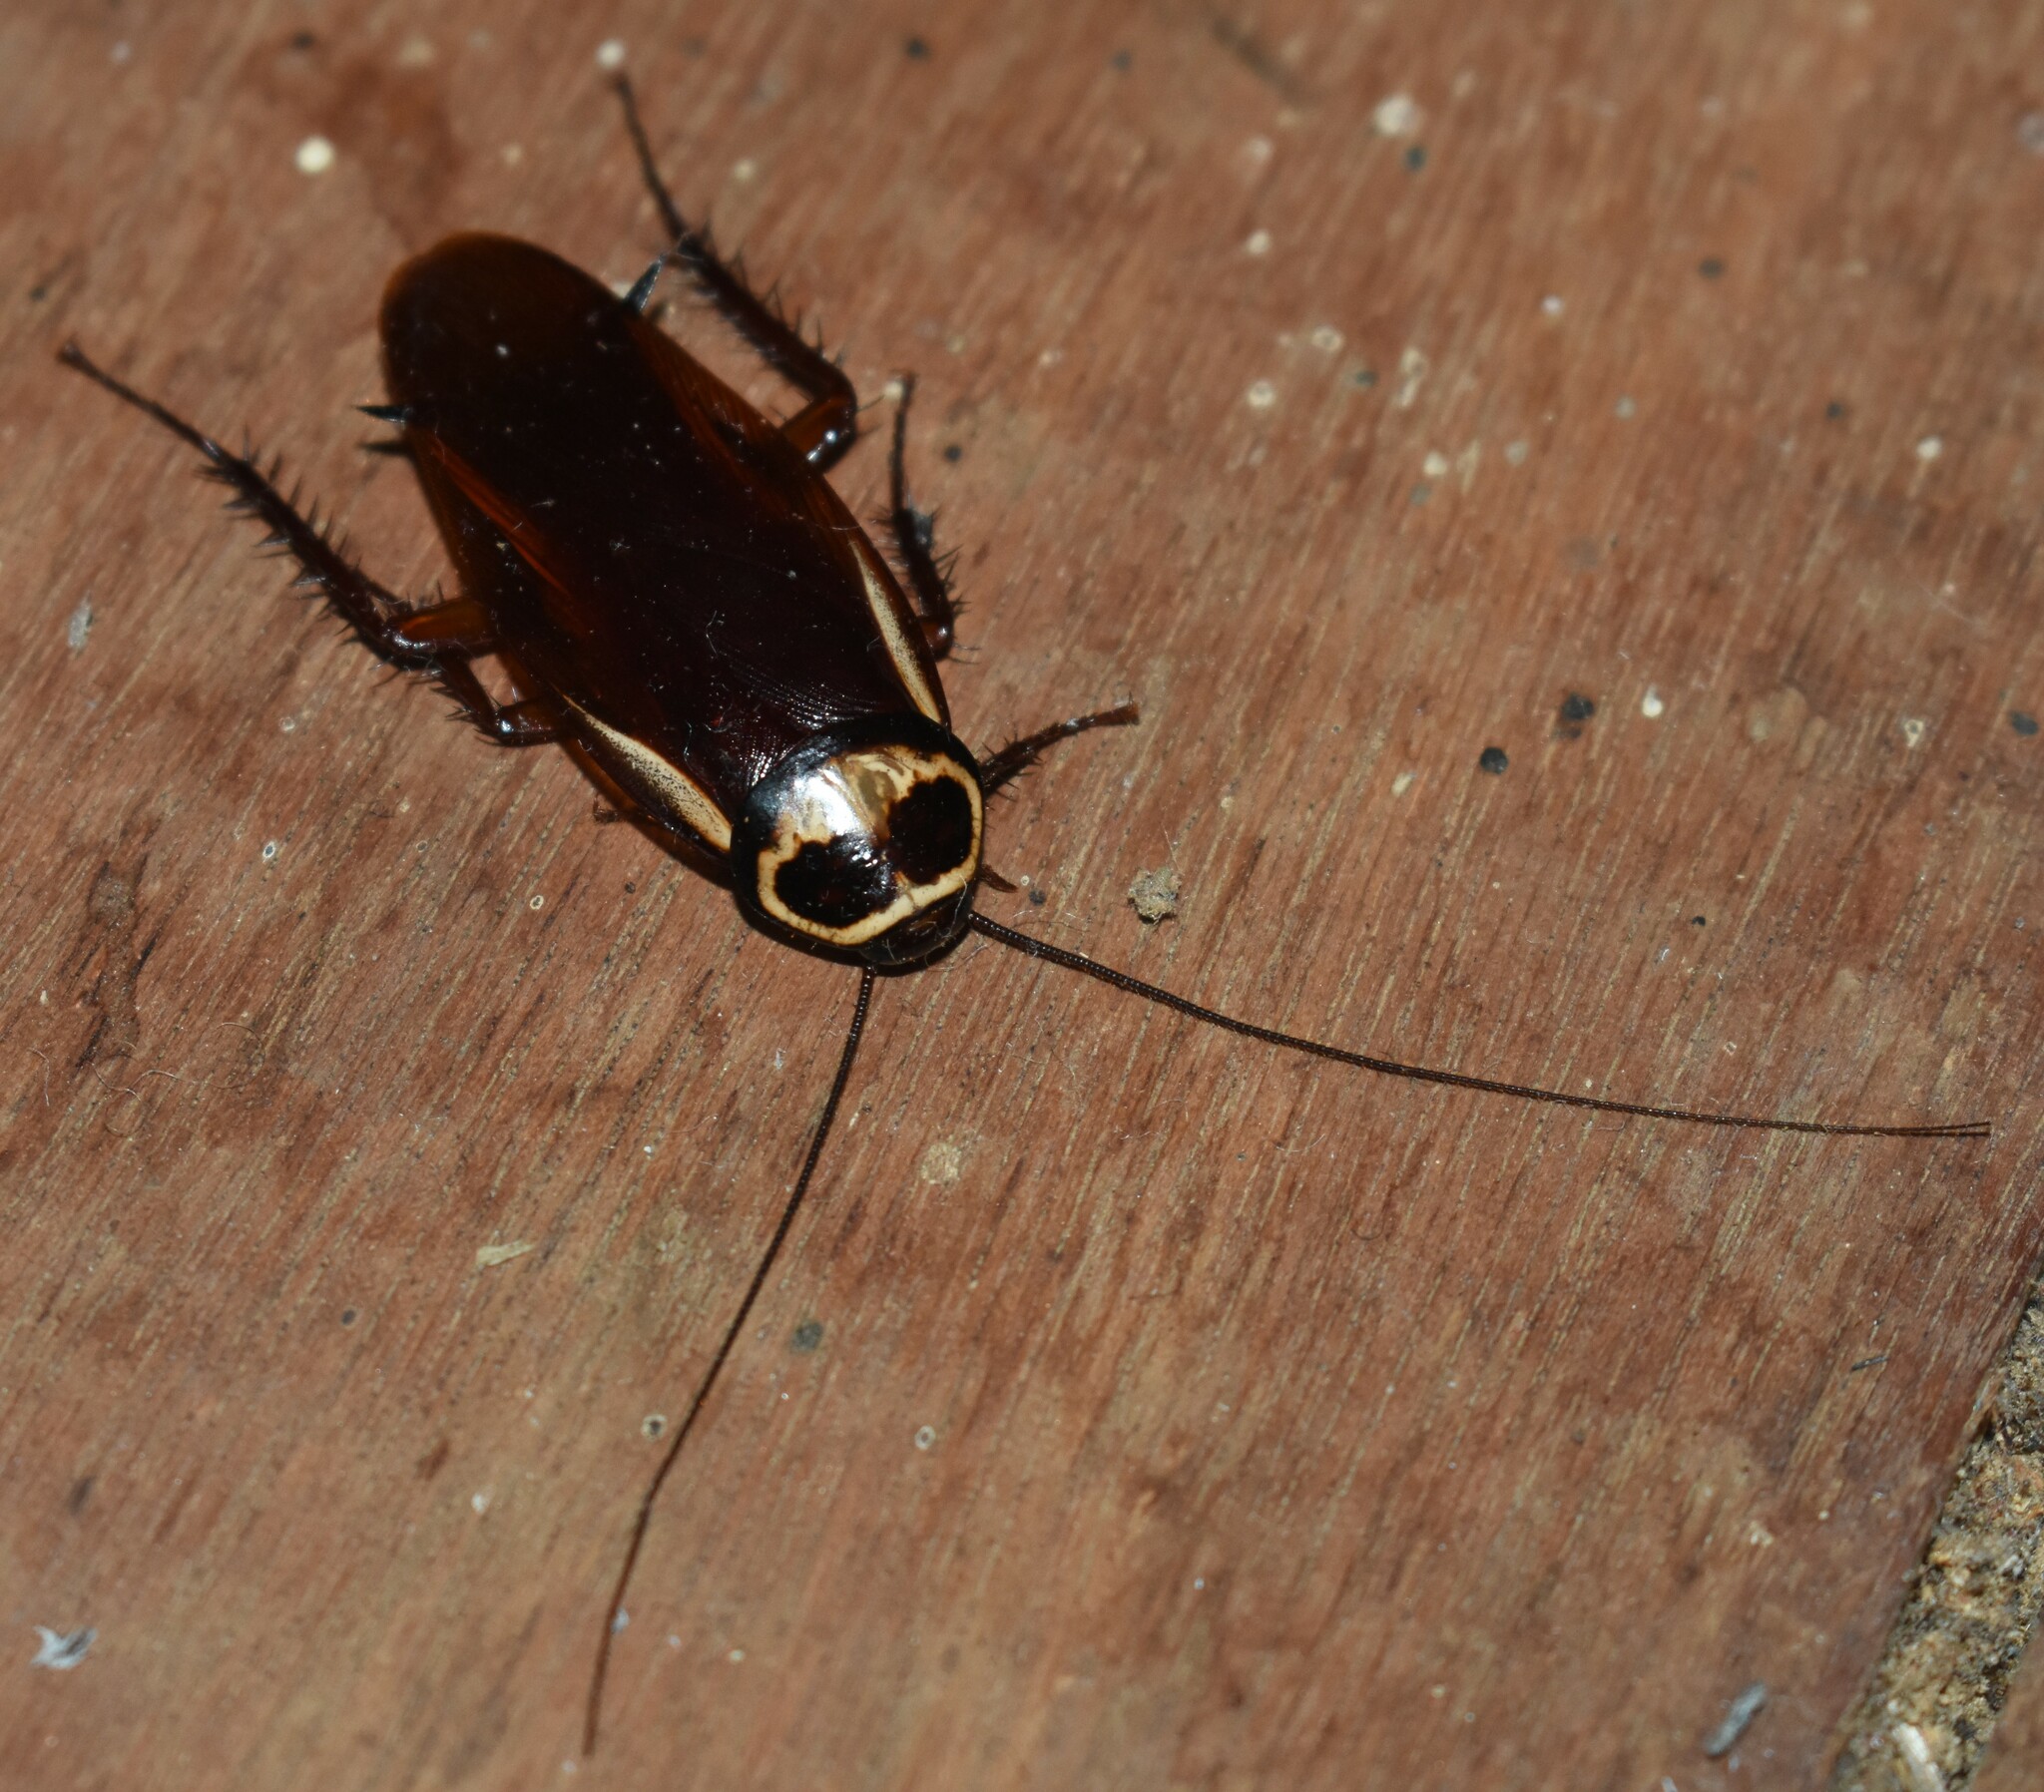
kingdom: Animalia
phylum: Arthropoda
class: Insecta
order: Blattodea
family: Blattidae
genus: Periplaneta
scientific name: Periplaneta australasiae
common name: Australian cockroach
